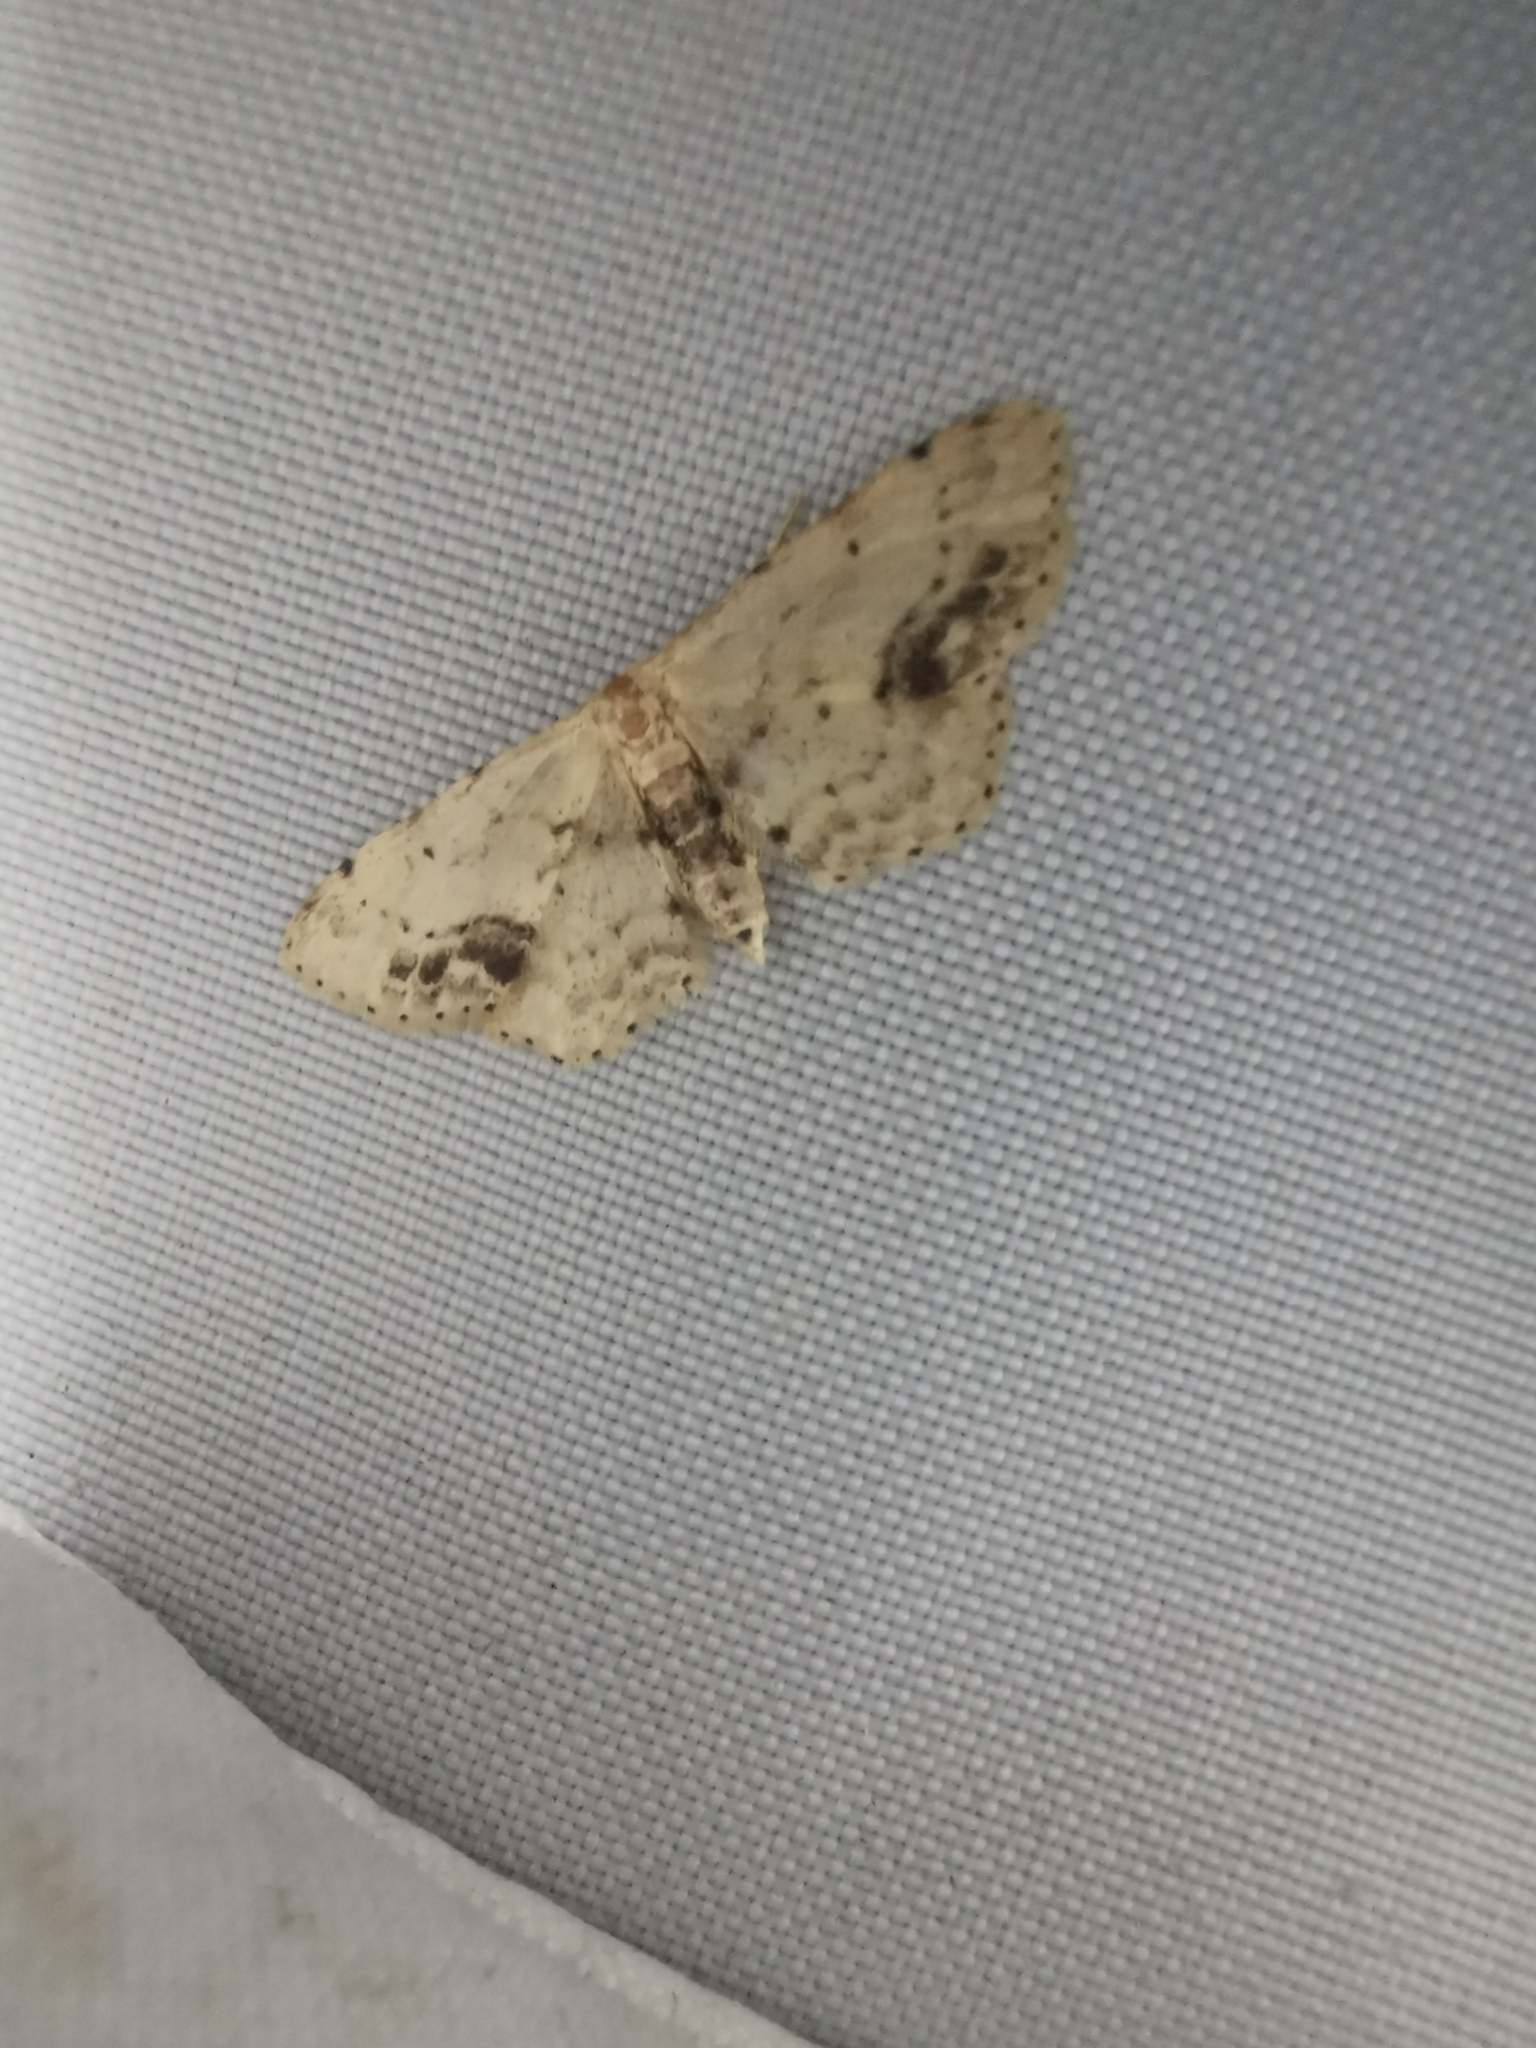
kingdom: Animalia
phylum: Arthropoda
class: Insecta
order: Lepidoptera
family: Geometridae
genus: Idaea
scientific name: Idaea dimidiata
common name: Single-dotted wave
